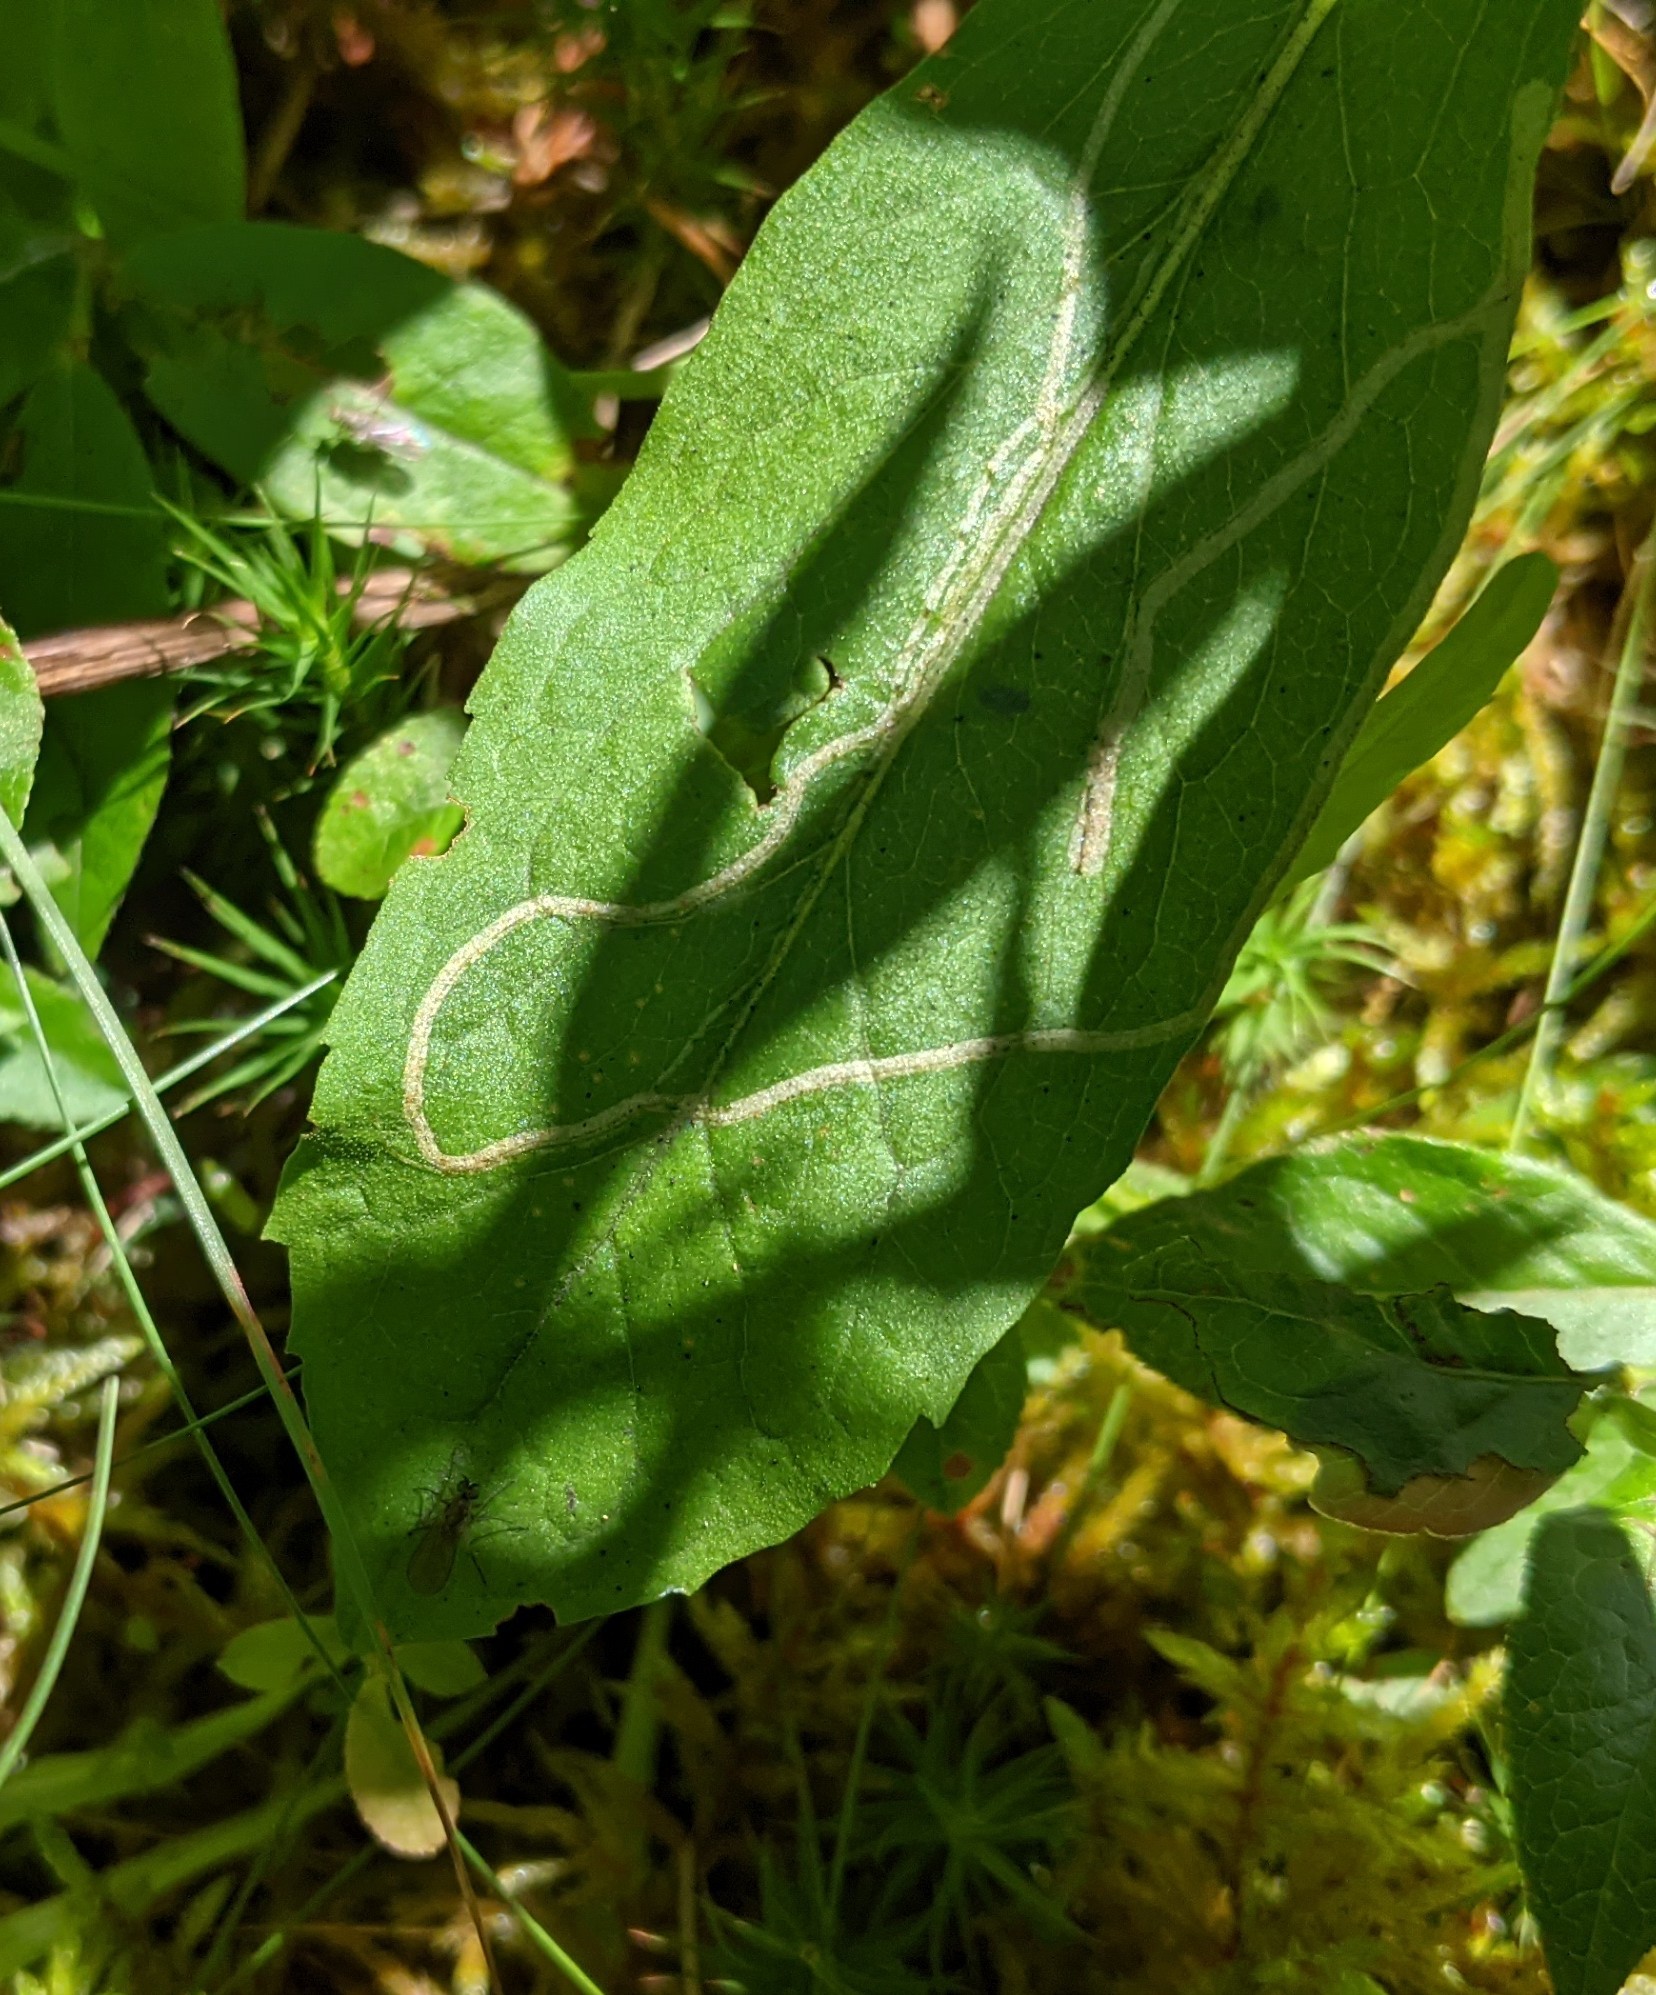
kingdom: Animalia
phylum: Arthropoda
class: Insecta
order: Diptera
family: Agromyzidae
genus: Ophiomyia
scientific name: Ophiomyia maura
